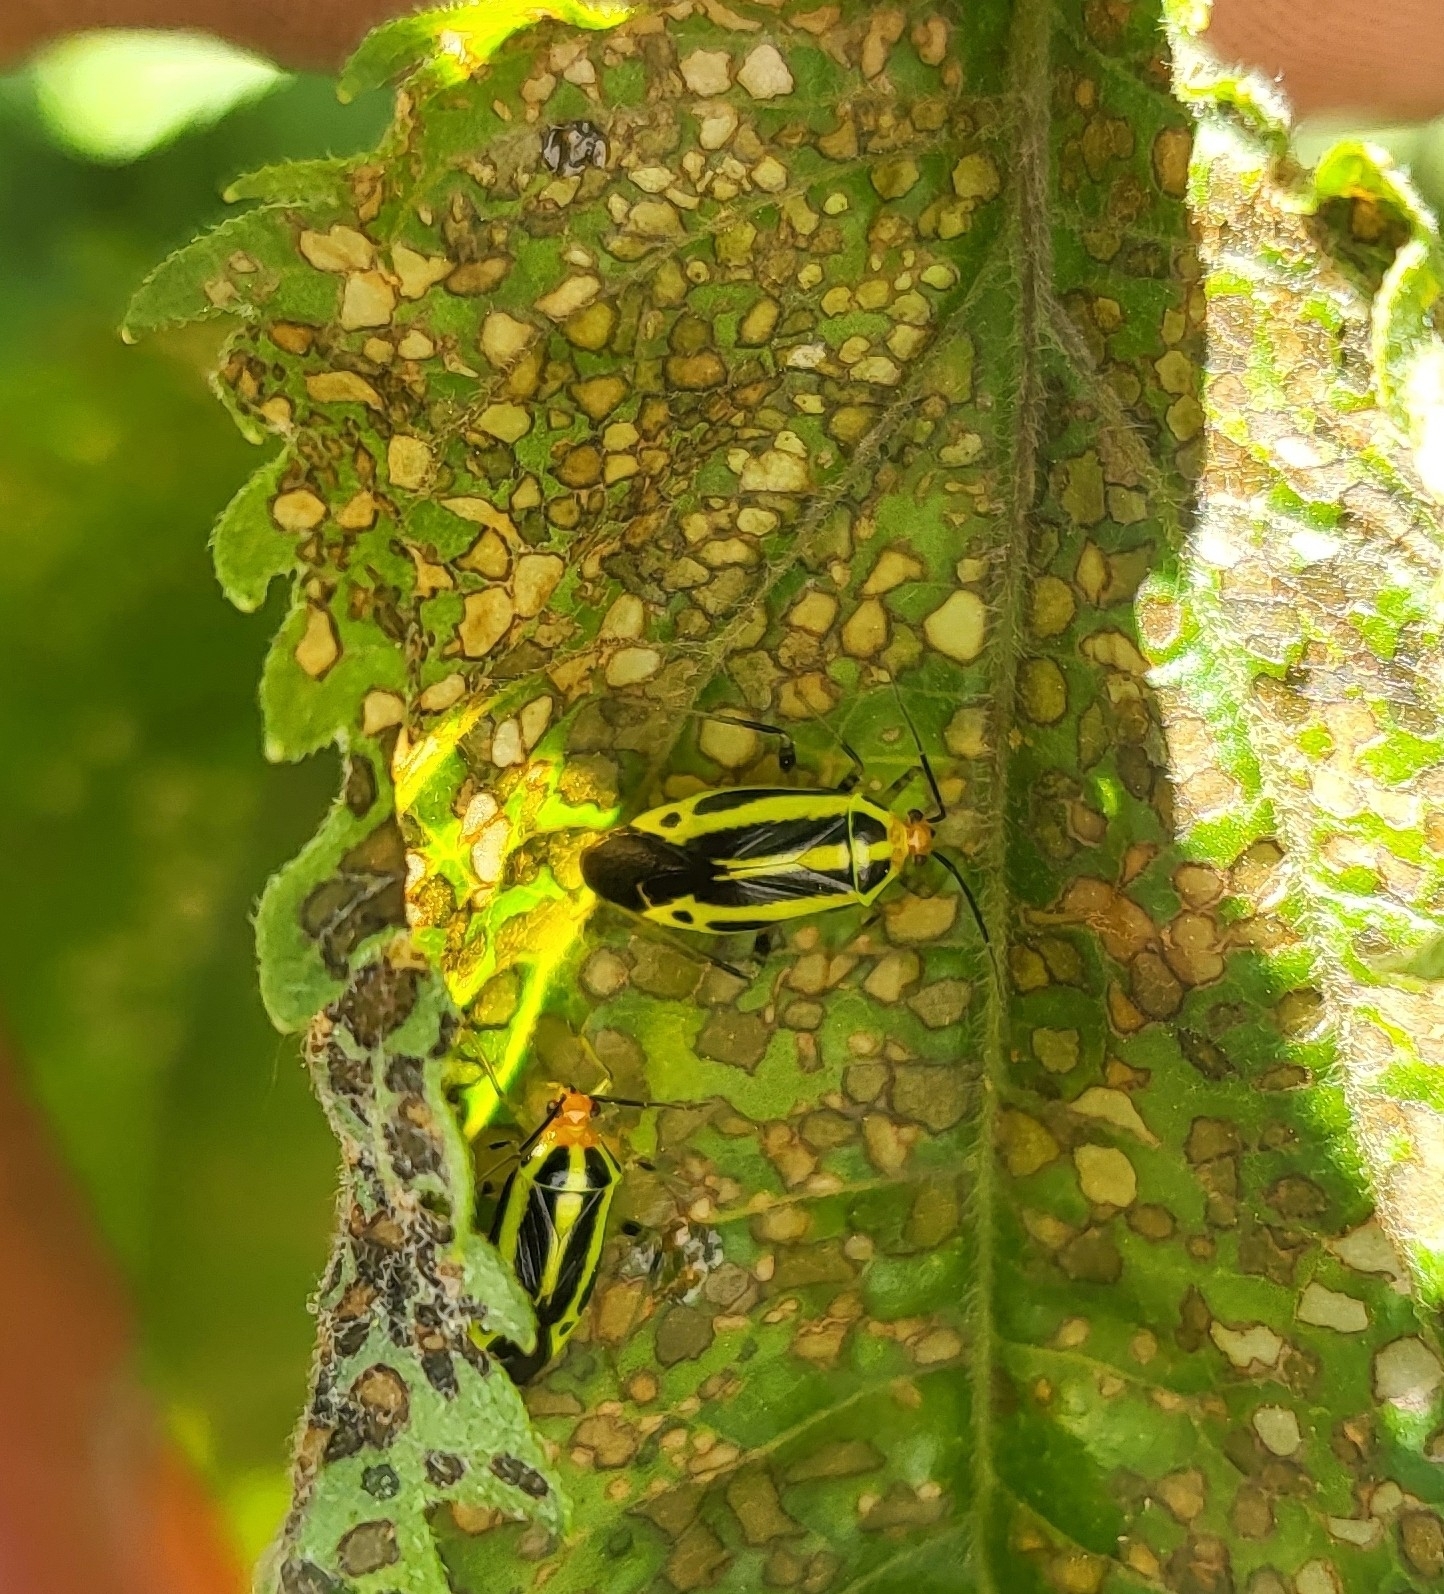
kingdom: Animalia
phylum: Arthropoda
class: Insecta
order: Hemiptera
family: Miridae
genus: Poecilocapsus
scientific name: Poecilocapsus lineatus
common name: Four-lined plant bug
